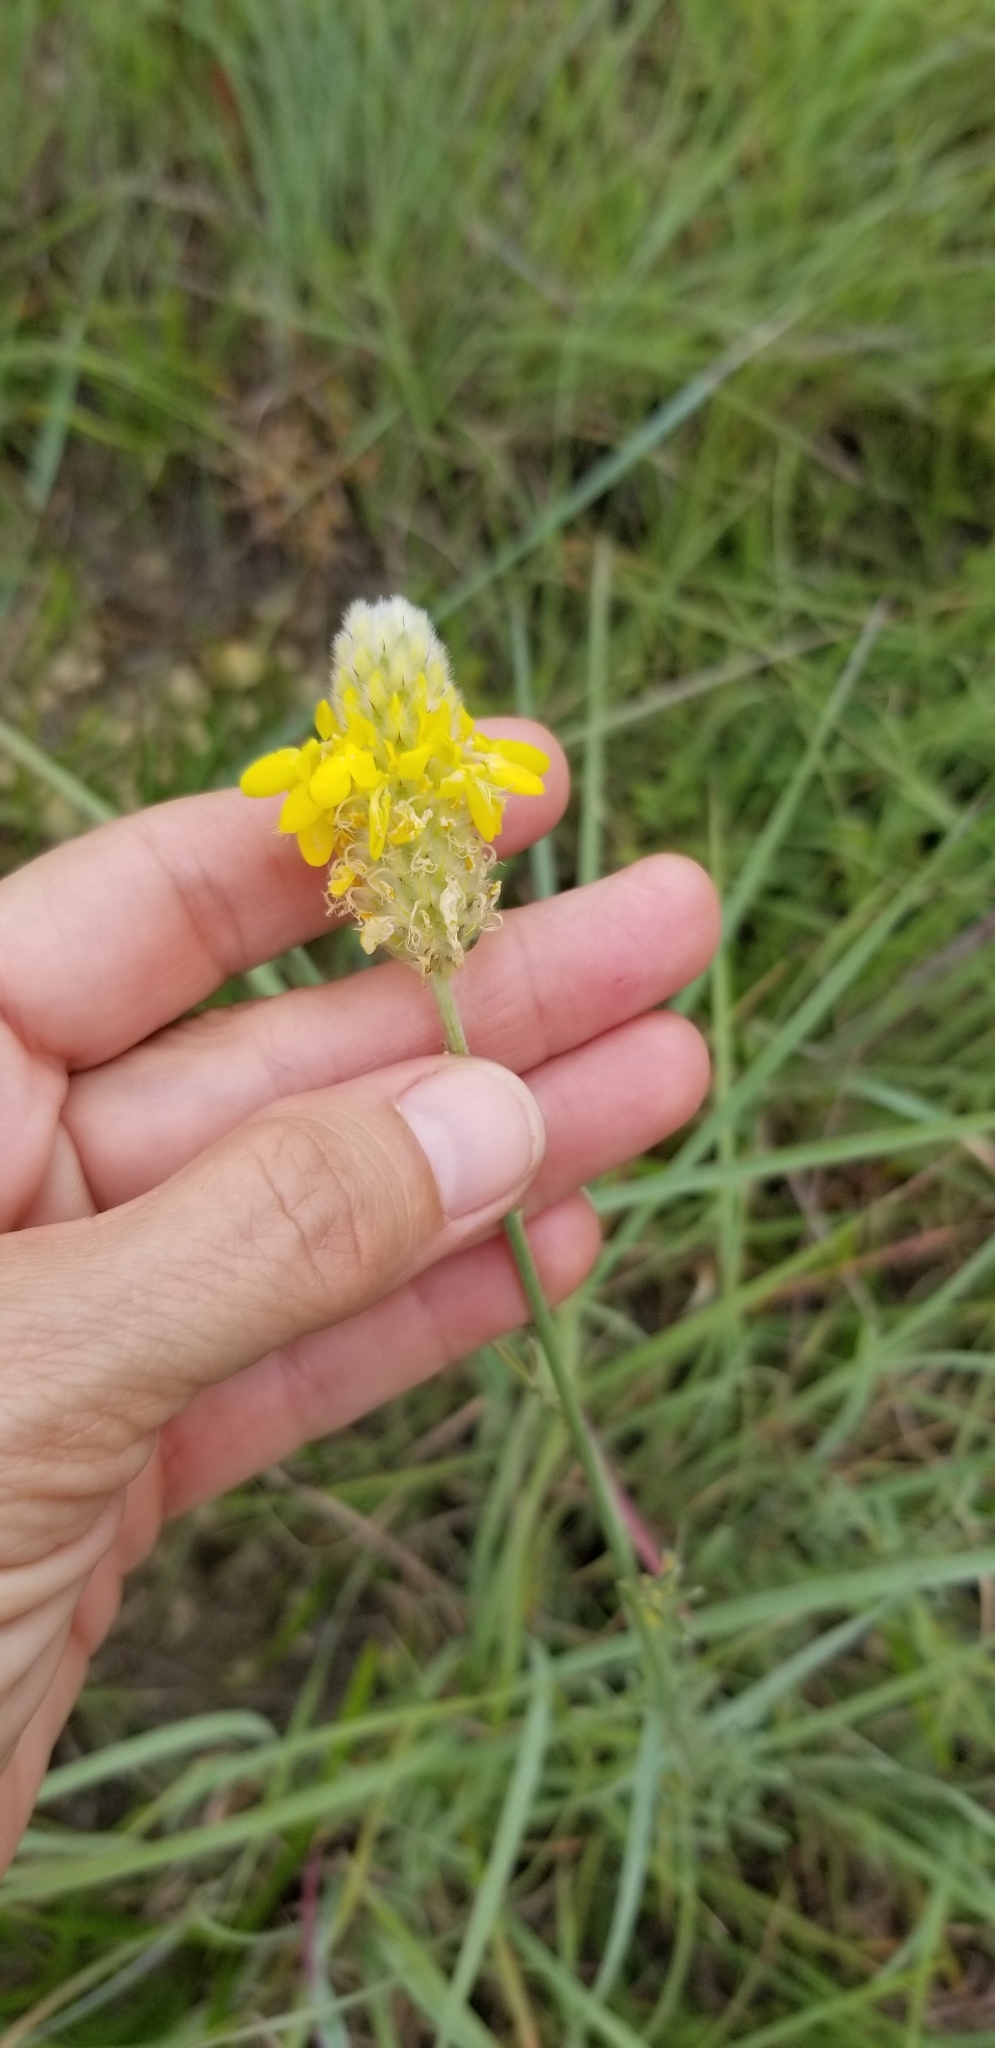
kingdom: Plantae
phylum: Tracheophyta
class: Magnoliopsida
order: Fabales
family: Fabaceae
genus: Dalea
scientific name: Dalea aurea
